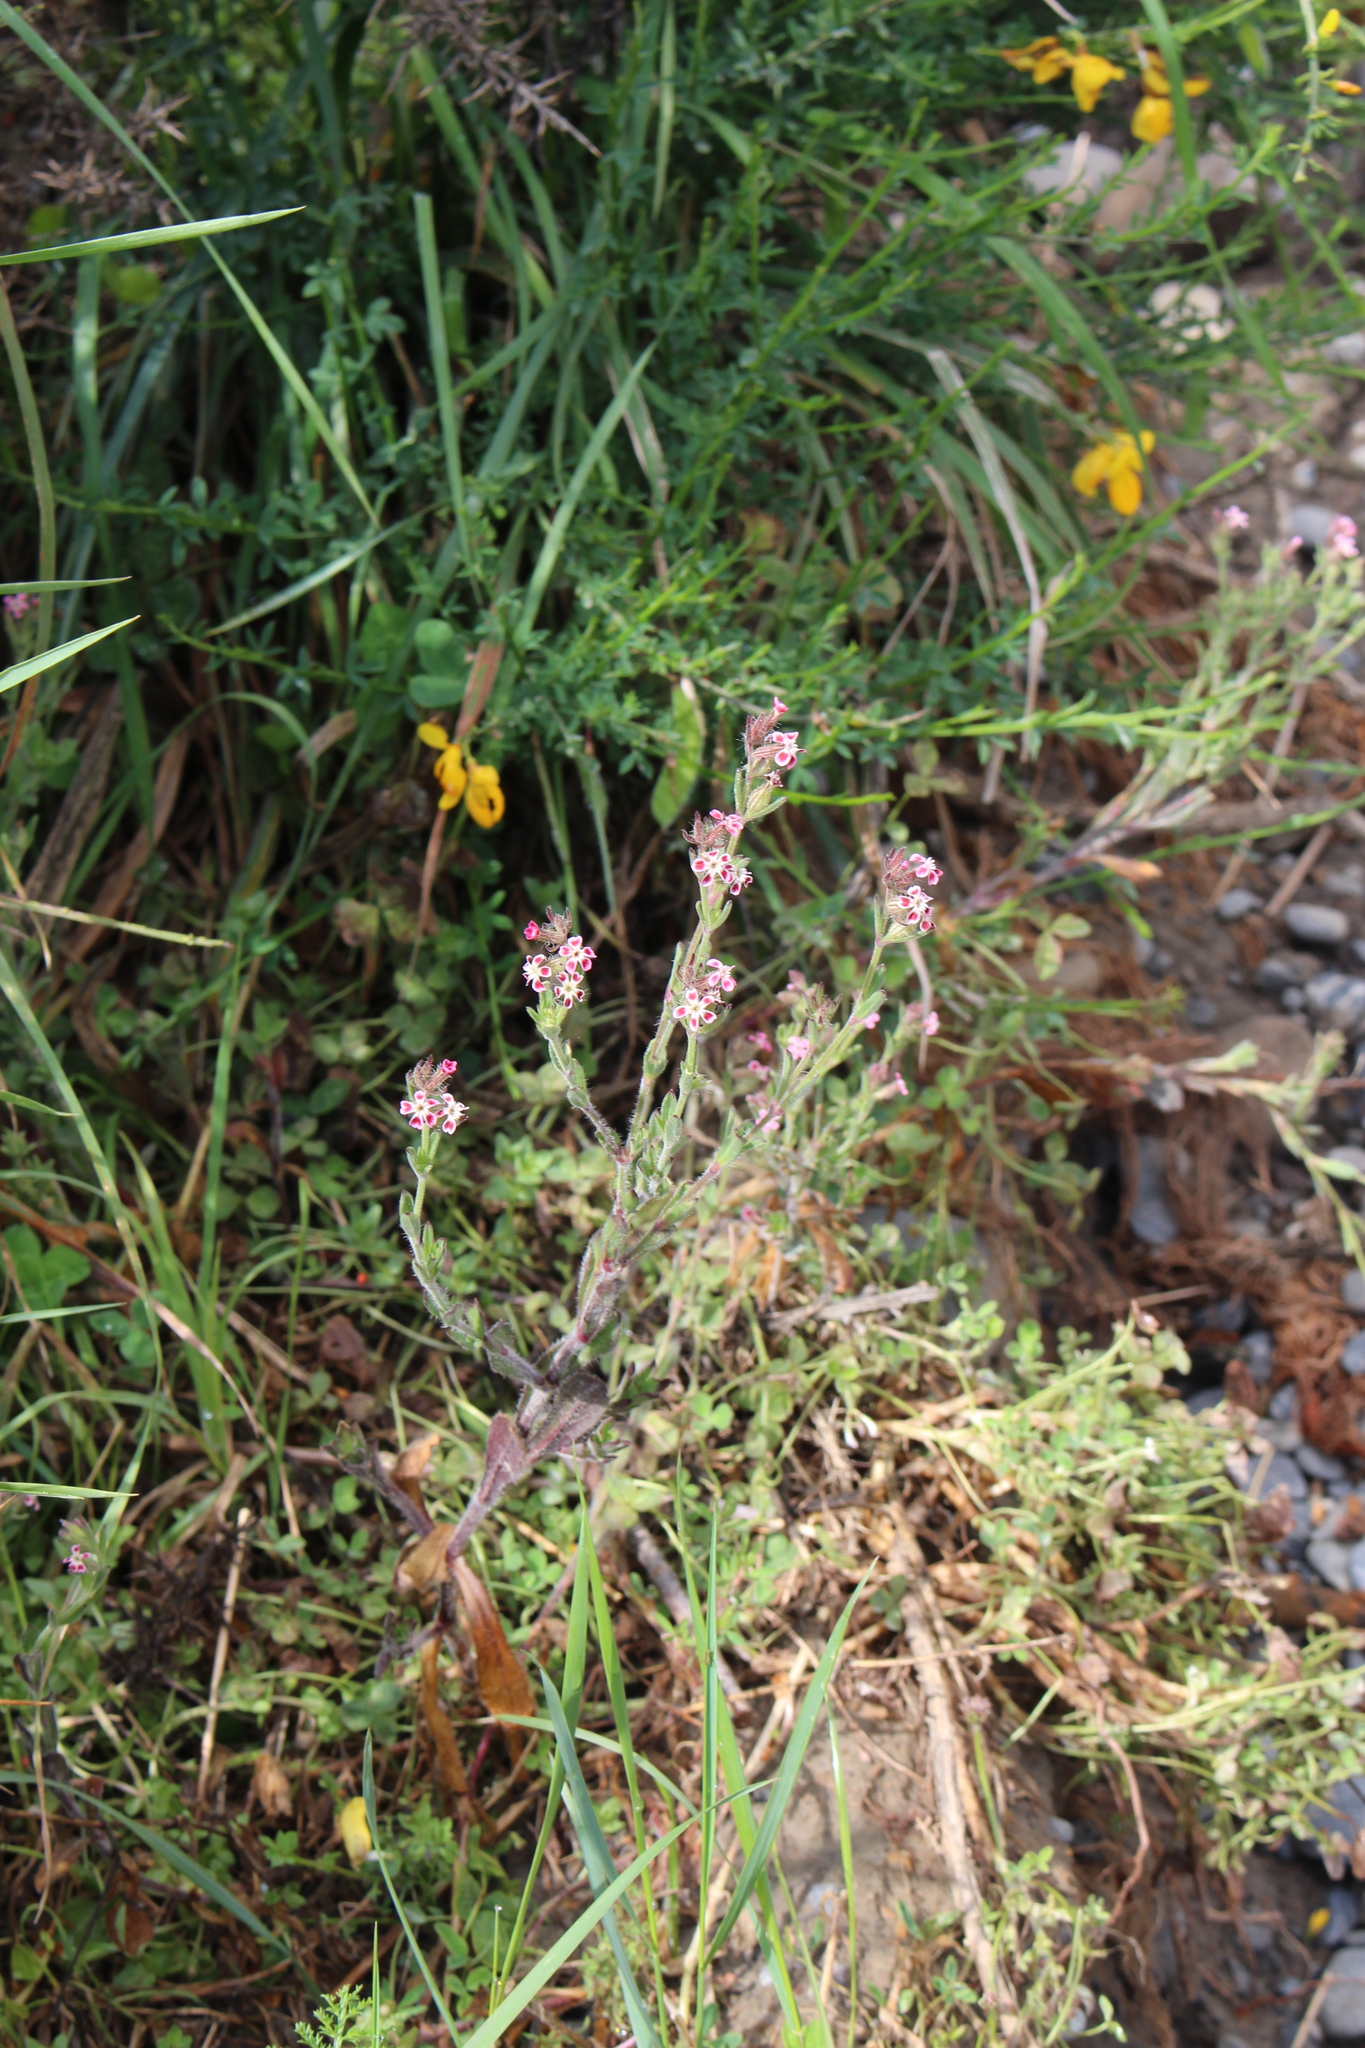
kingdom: Plantae
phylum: Tracheophyta
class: Magnoliopsida
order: Caryophyllales
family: Caryophyllaceae
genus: Silene
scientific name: Silene gallica
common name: Small-flowered catchfly
